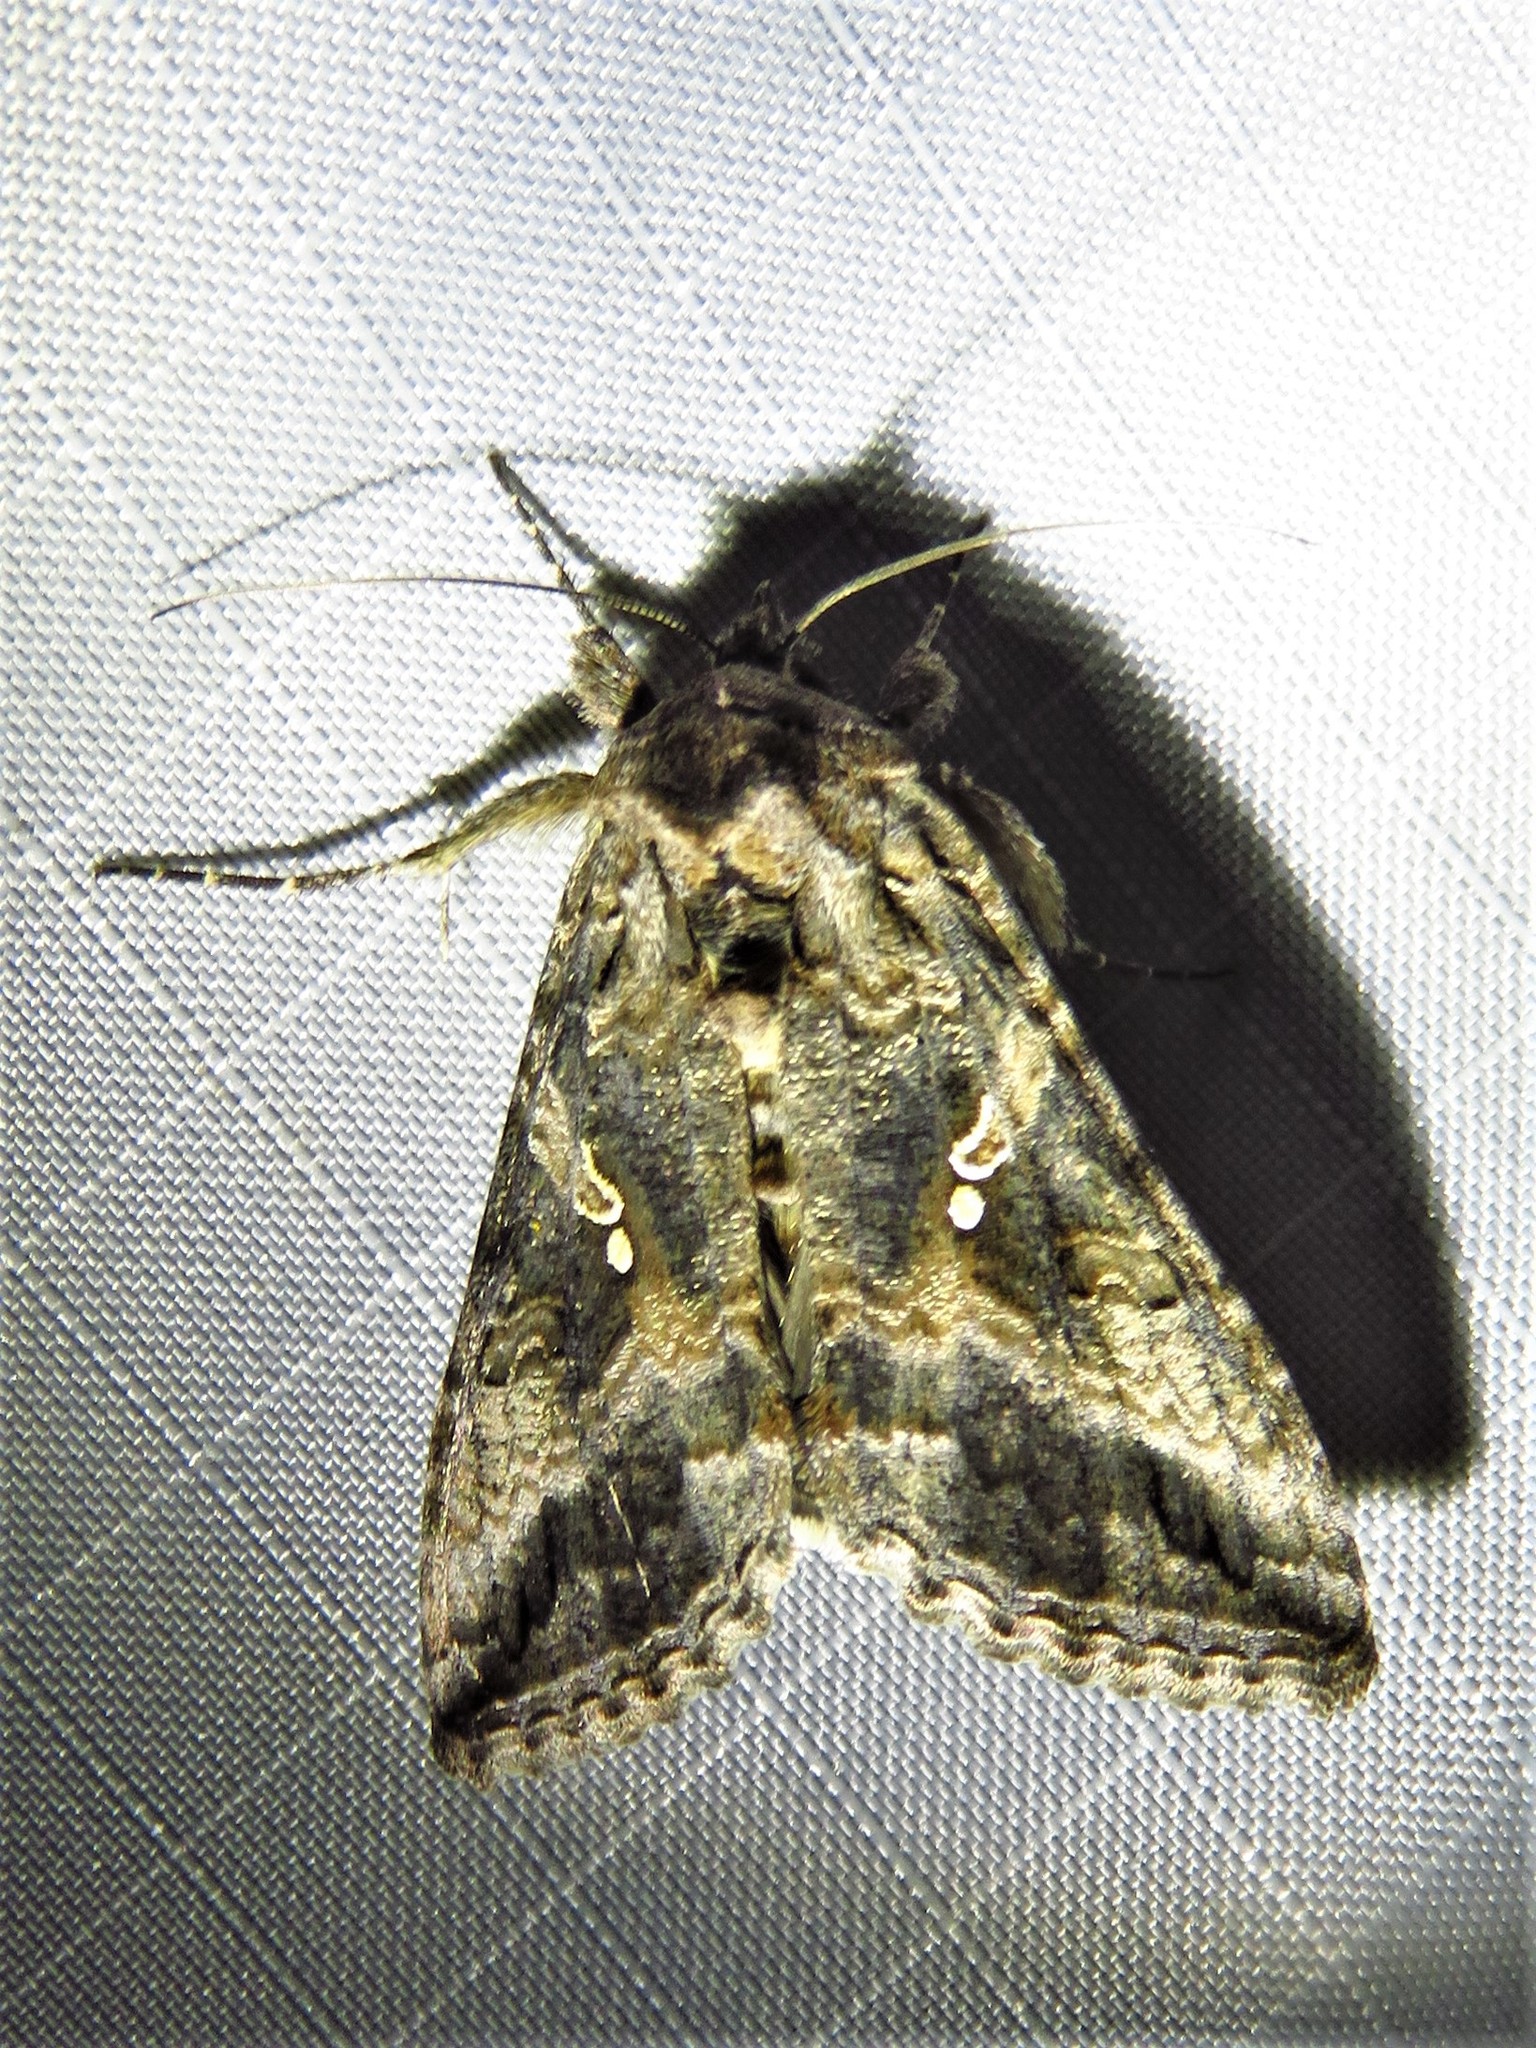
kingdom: Animalia
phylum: Arthropoda
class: Insecta
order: Lepidoptera
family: Noctuidae
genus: Rachiplusia
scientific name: Rachiplusia ou
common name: Gray looper moth
